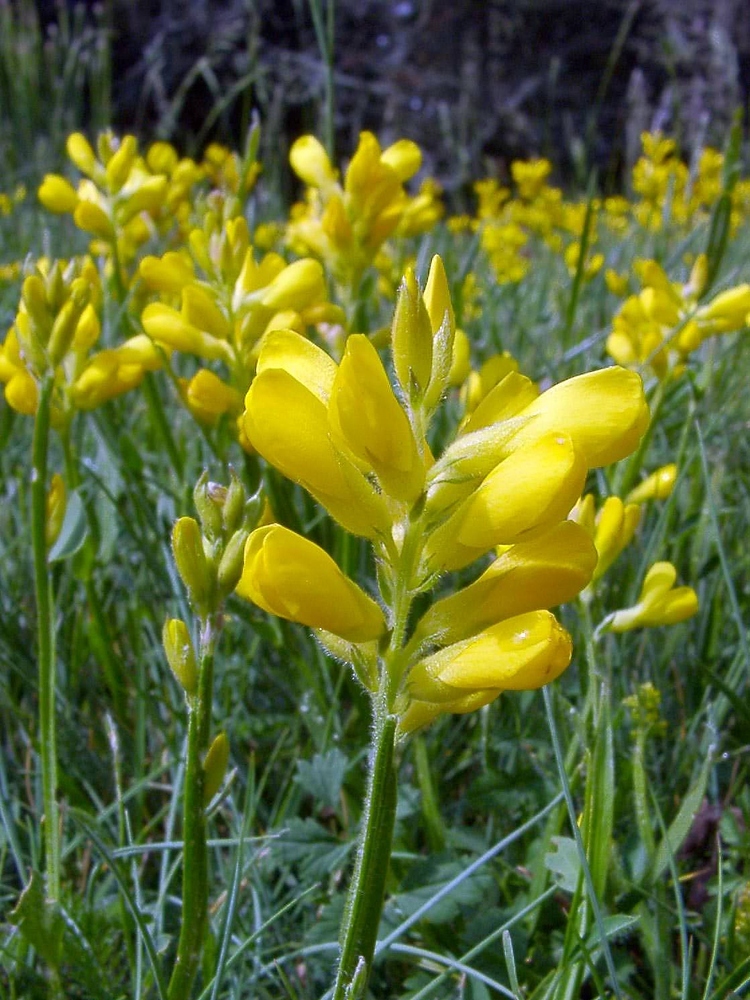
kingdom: Plantae
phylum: Tracheophyta
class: Magnoliopsida
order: Fabales
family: Fabaceae
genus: Genista
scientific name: Genista sagittalis
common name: Winged greenweed
